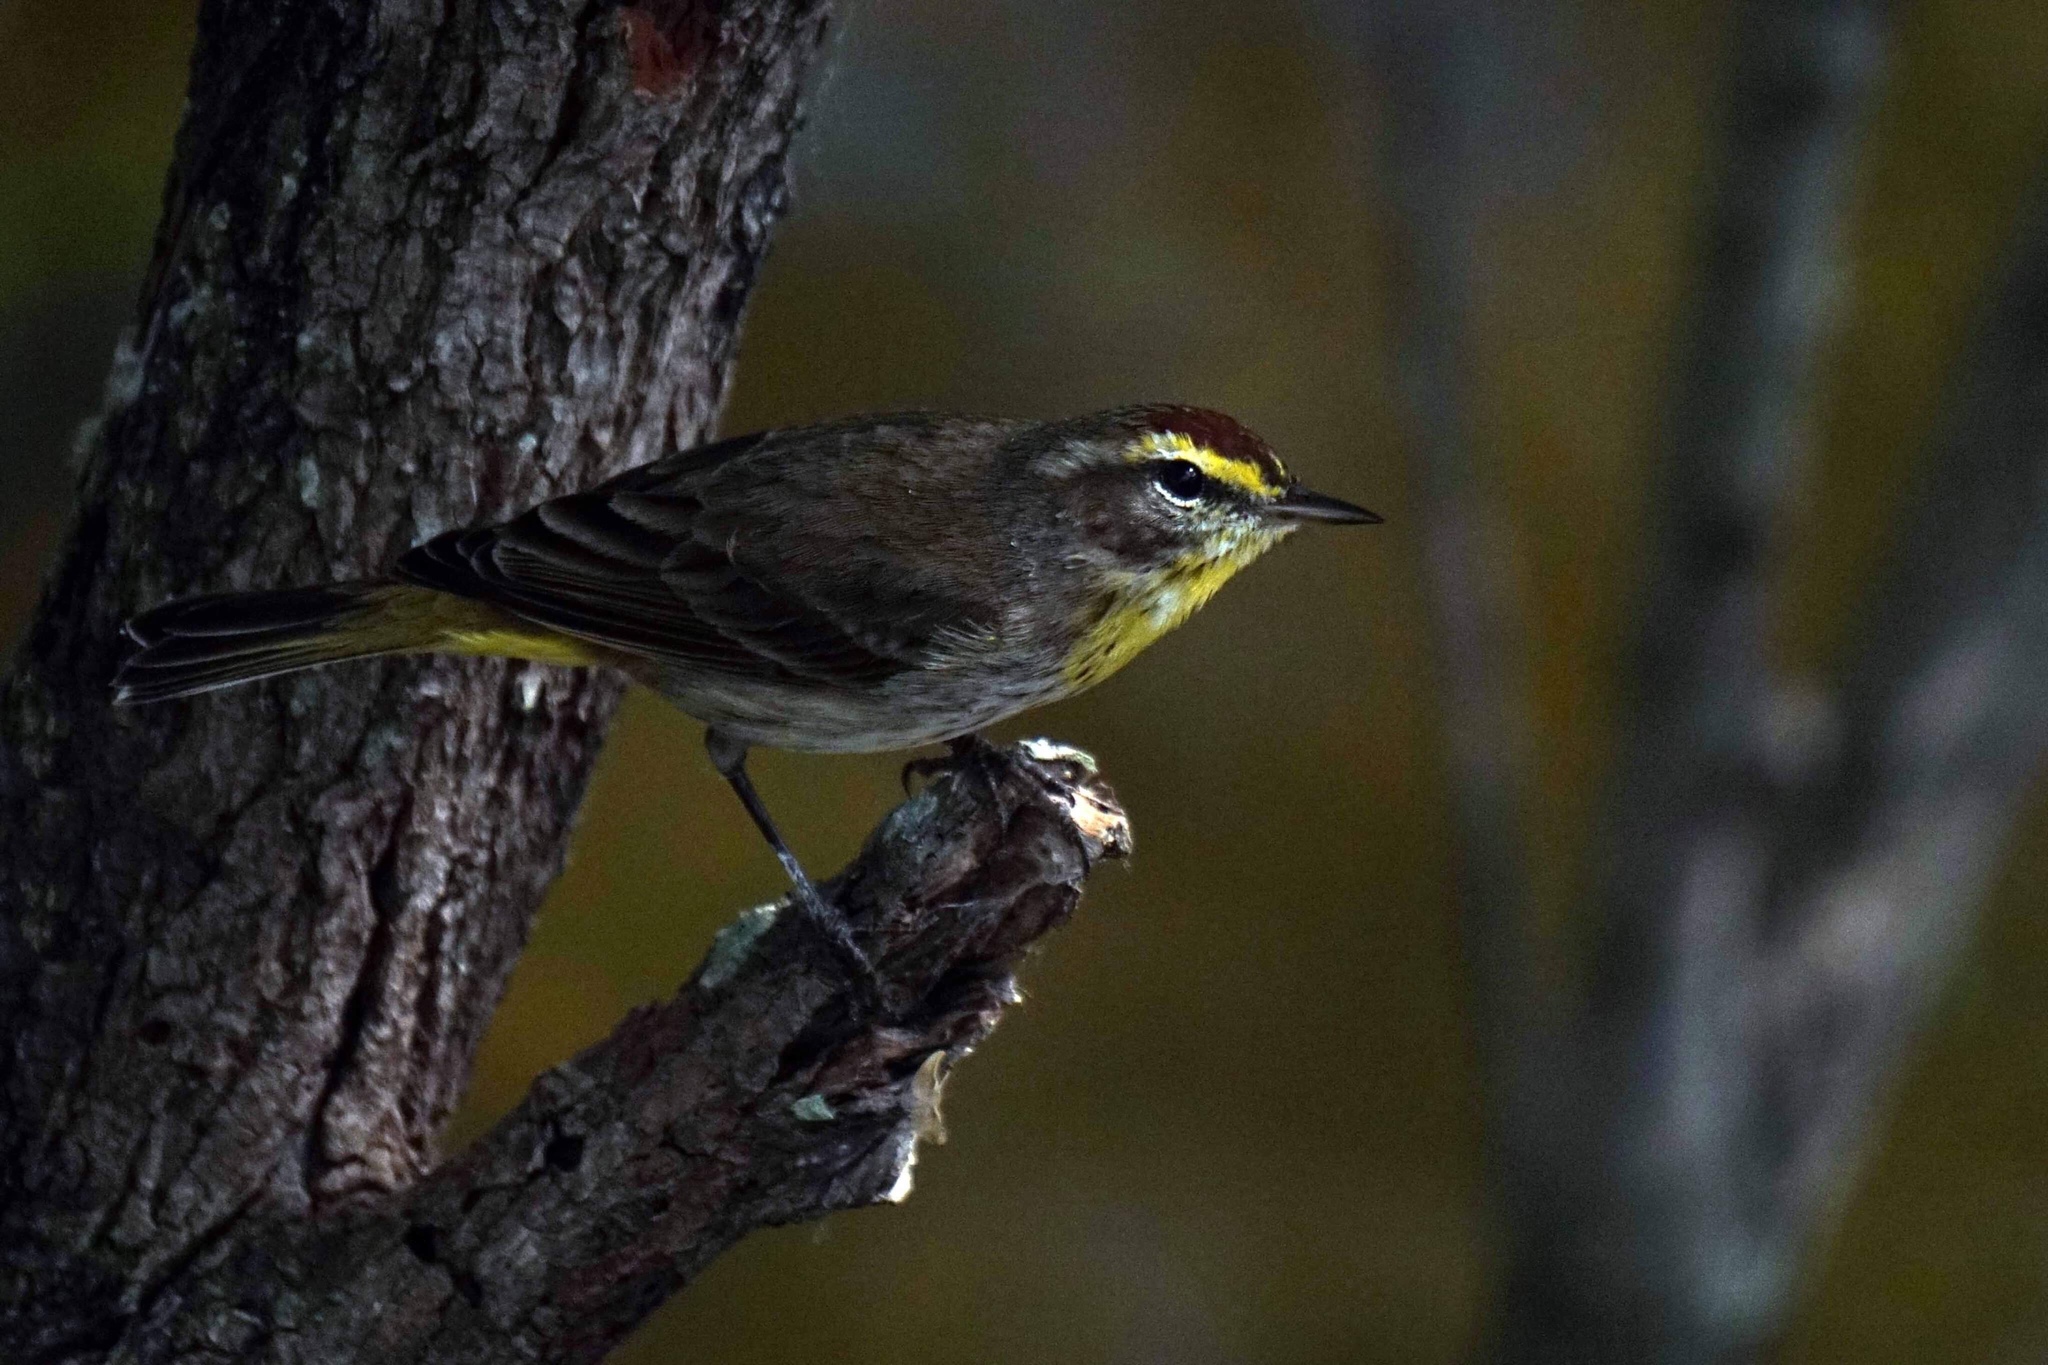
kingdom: Animalia
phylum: Chordata
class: Aves
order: Passeriformes
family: Parulidae
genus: Setophaga
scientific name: Setophaga palmarum
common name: Palm warbler
